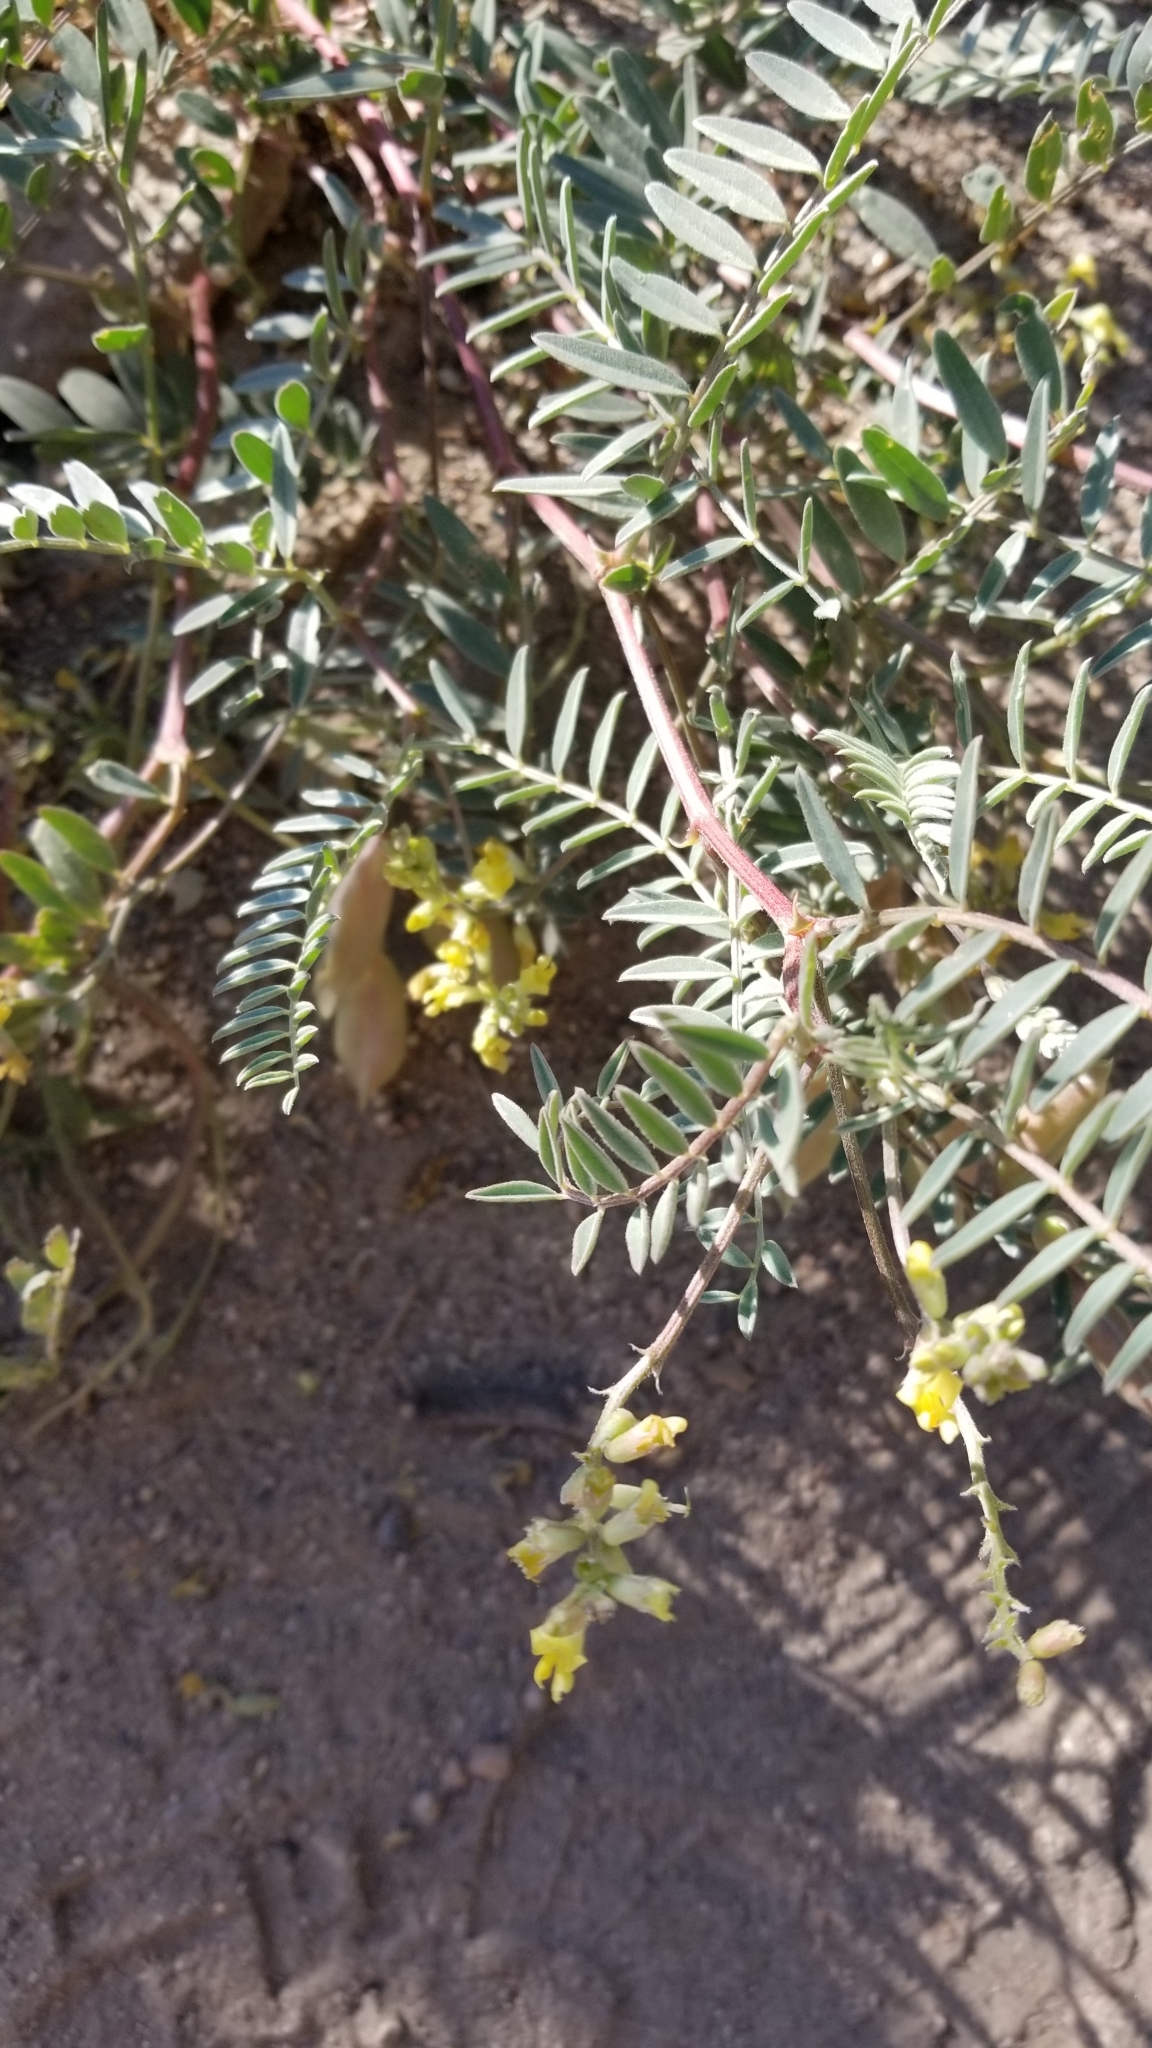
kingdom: Plantae
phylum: Tracheophyta
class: Magnoliopsida
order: Fabales
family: Fabaceae
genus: Astragalus
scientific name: Astragalus douglasii
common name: Jacumba milkvetch
